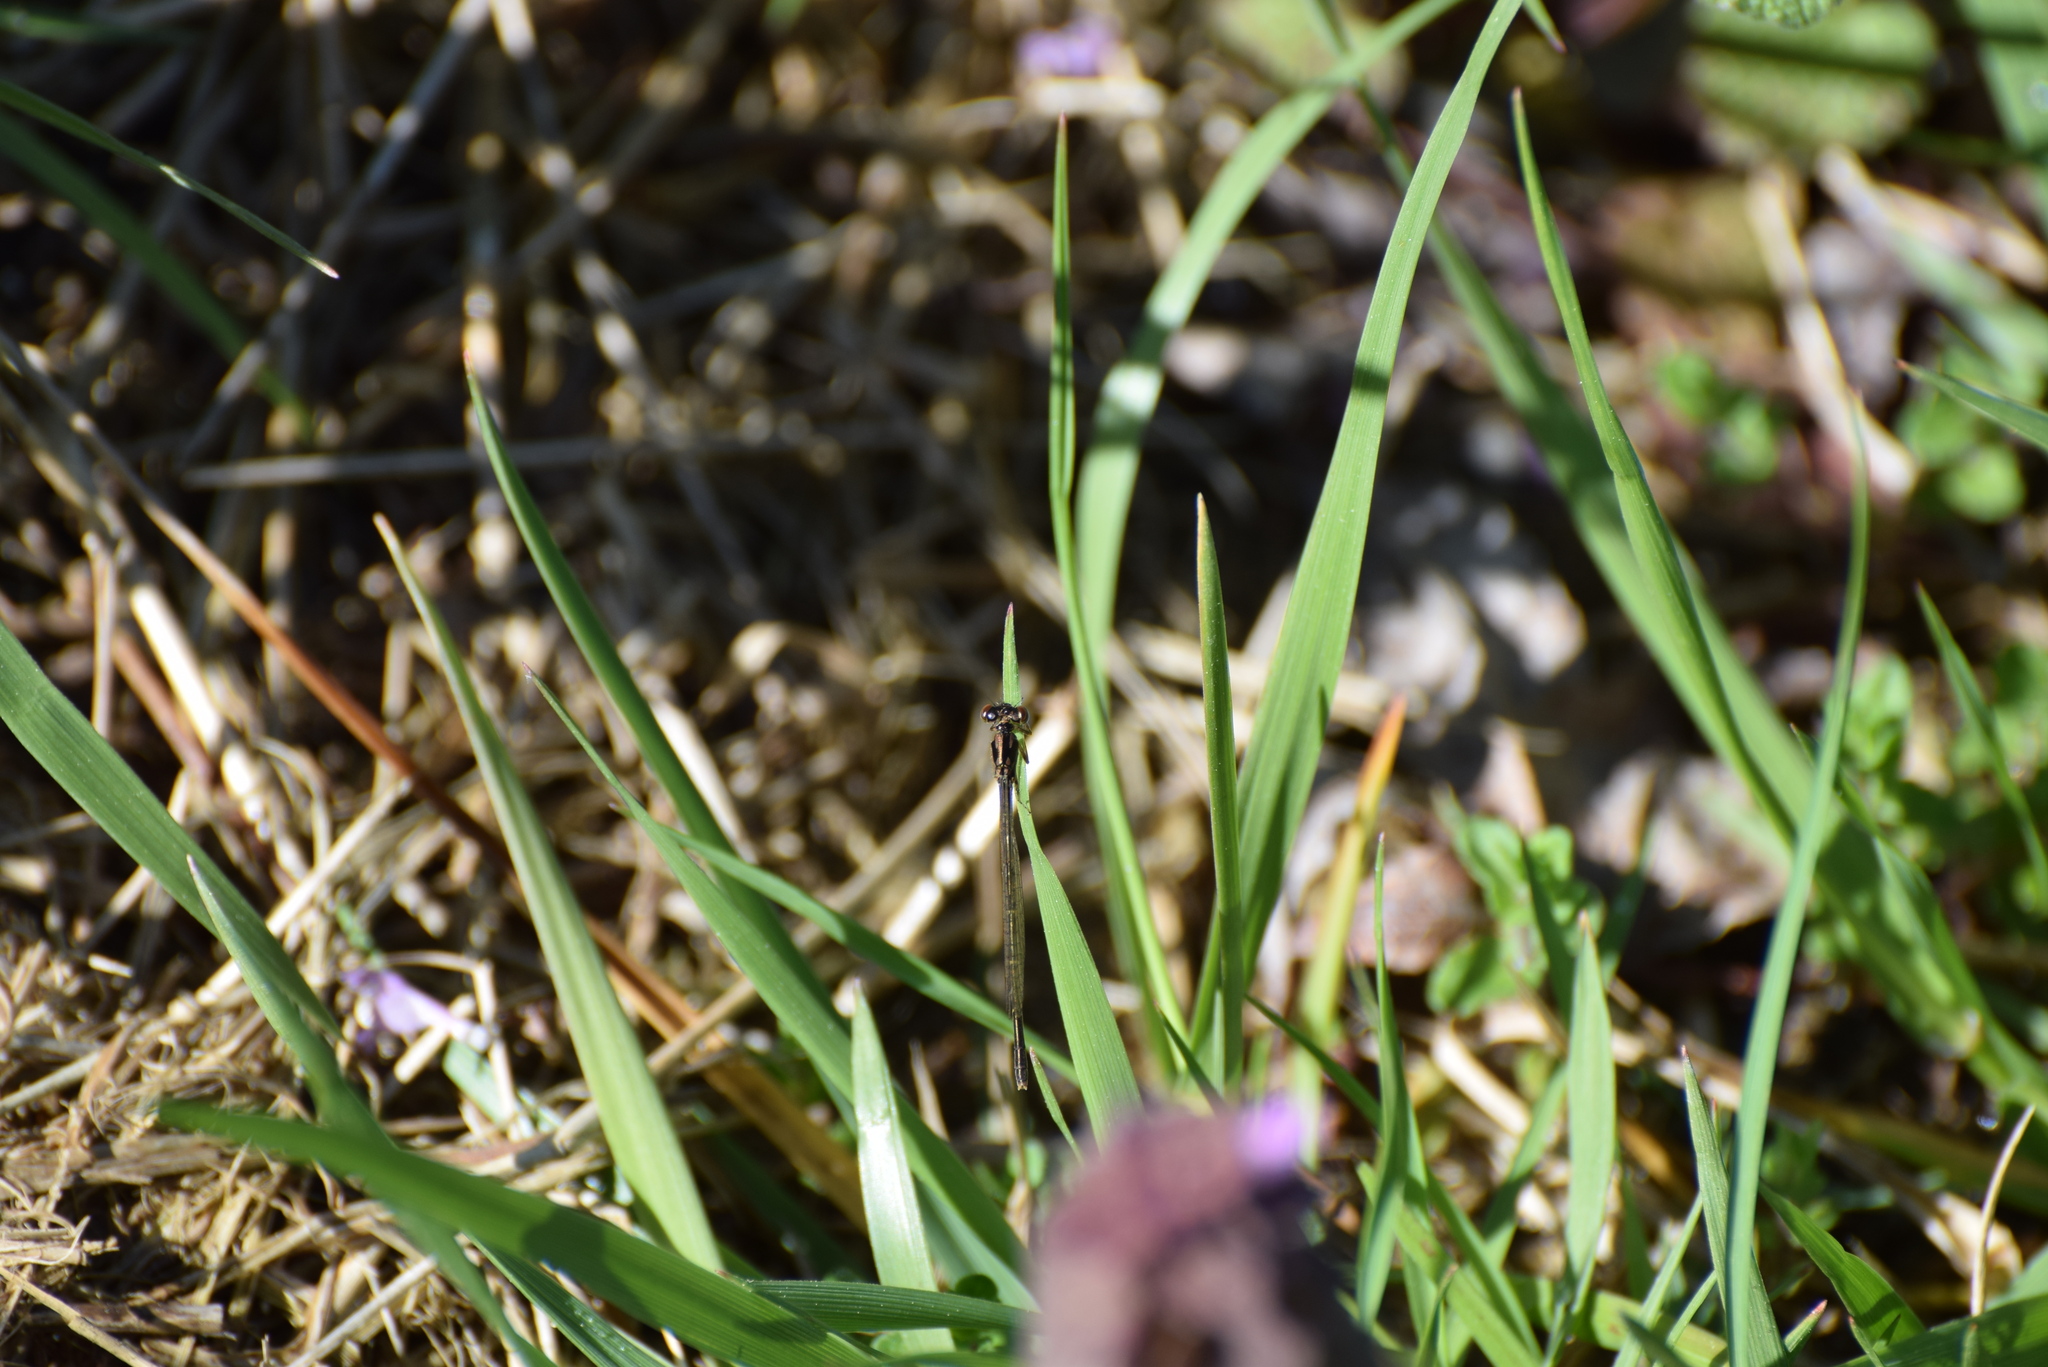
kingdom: Animalia
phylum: Arthropoda
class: Insecta
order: Odonata
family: Coenagrionidae
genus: Ischnura
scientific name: Ischnura posita
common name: Fragile forktail
